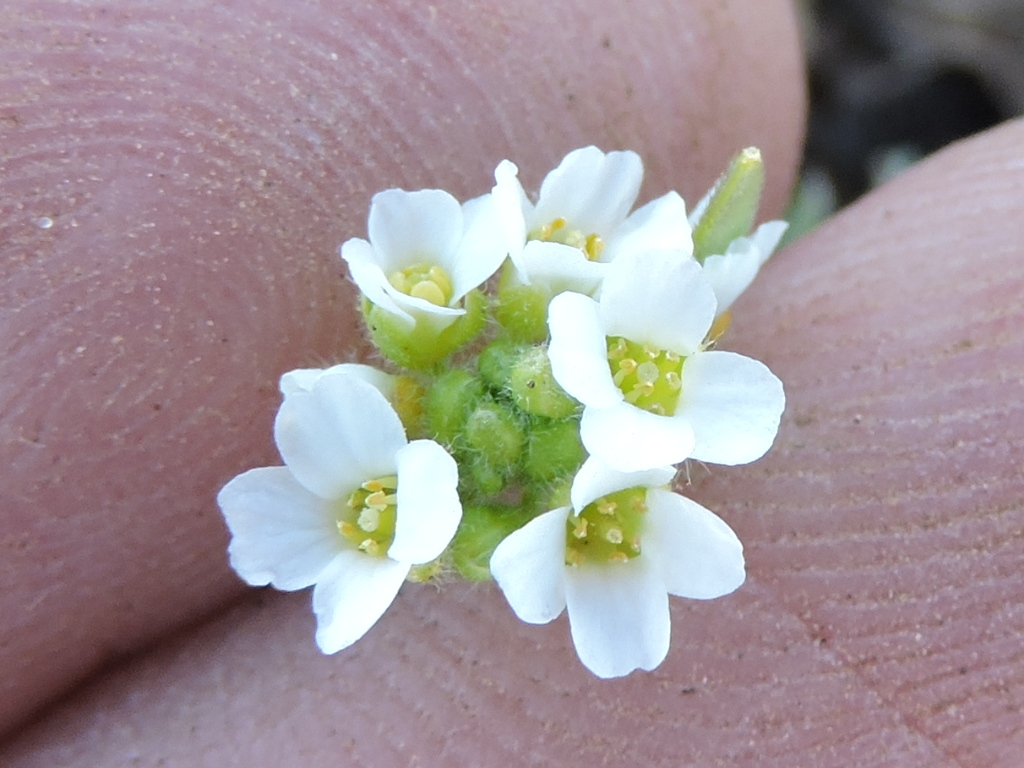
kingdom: Plantae
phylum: Tracheophyta
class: Magnoliopsida
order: Brassicales
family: Brassicaceae
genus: Tomostima
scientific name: Tomostima cuneifolia
